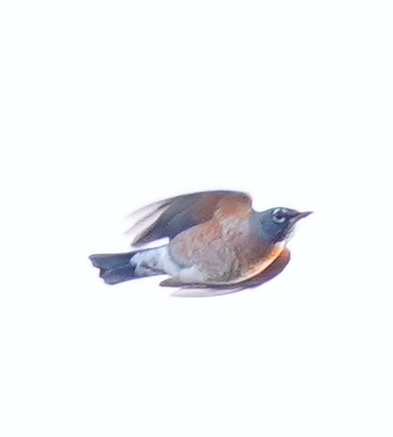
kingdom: Animalia
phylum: Chordata
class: Aves
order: Passeriformes
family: Turdidae
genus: Turdus
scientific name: Turdus migratorius
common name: American robin
